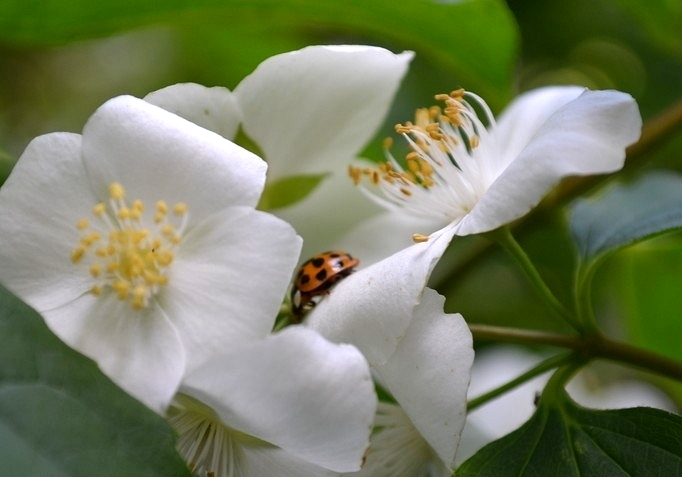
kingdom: Animalia
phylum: Arthropoda
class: Insecta
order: Coleoptera
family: Coccinellidae
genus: Harmonia
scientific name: Harmonia axyridis
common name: Harlequin ladybird
